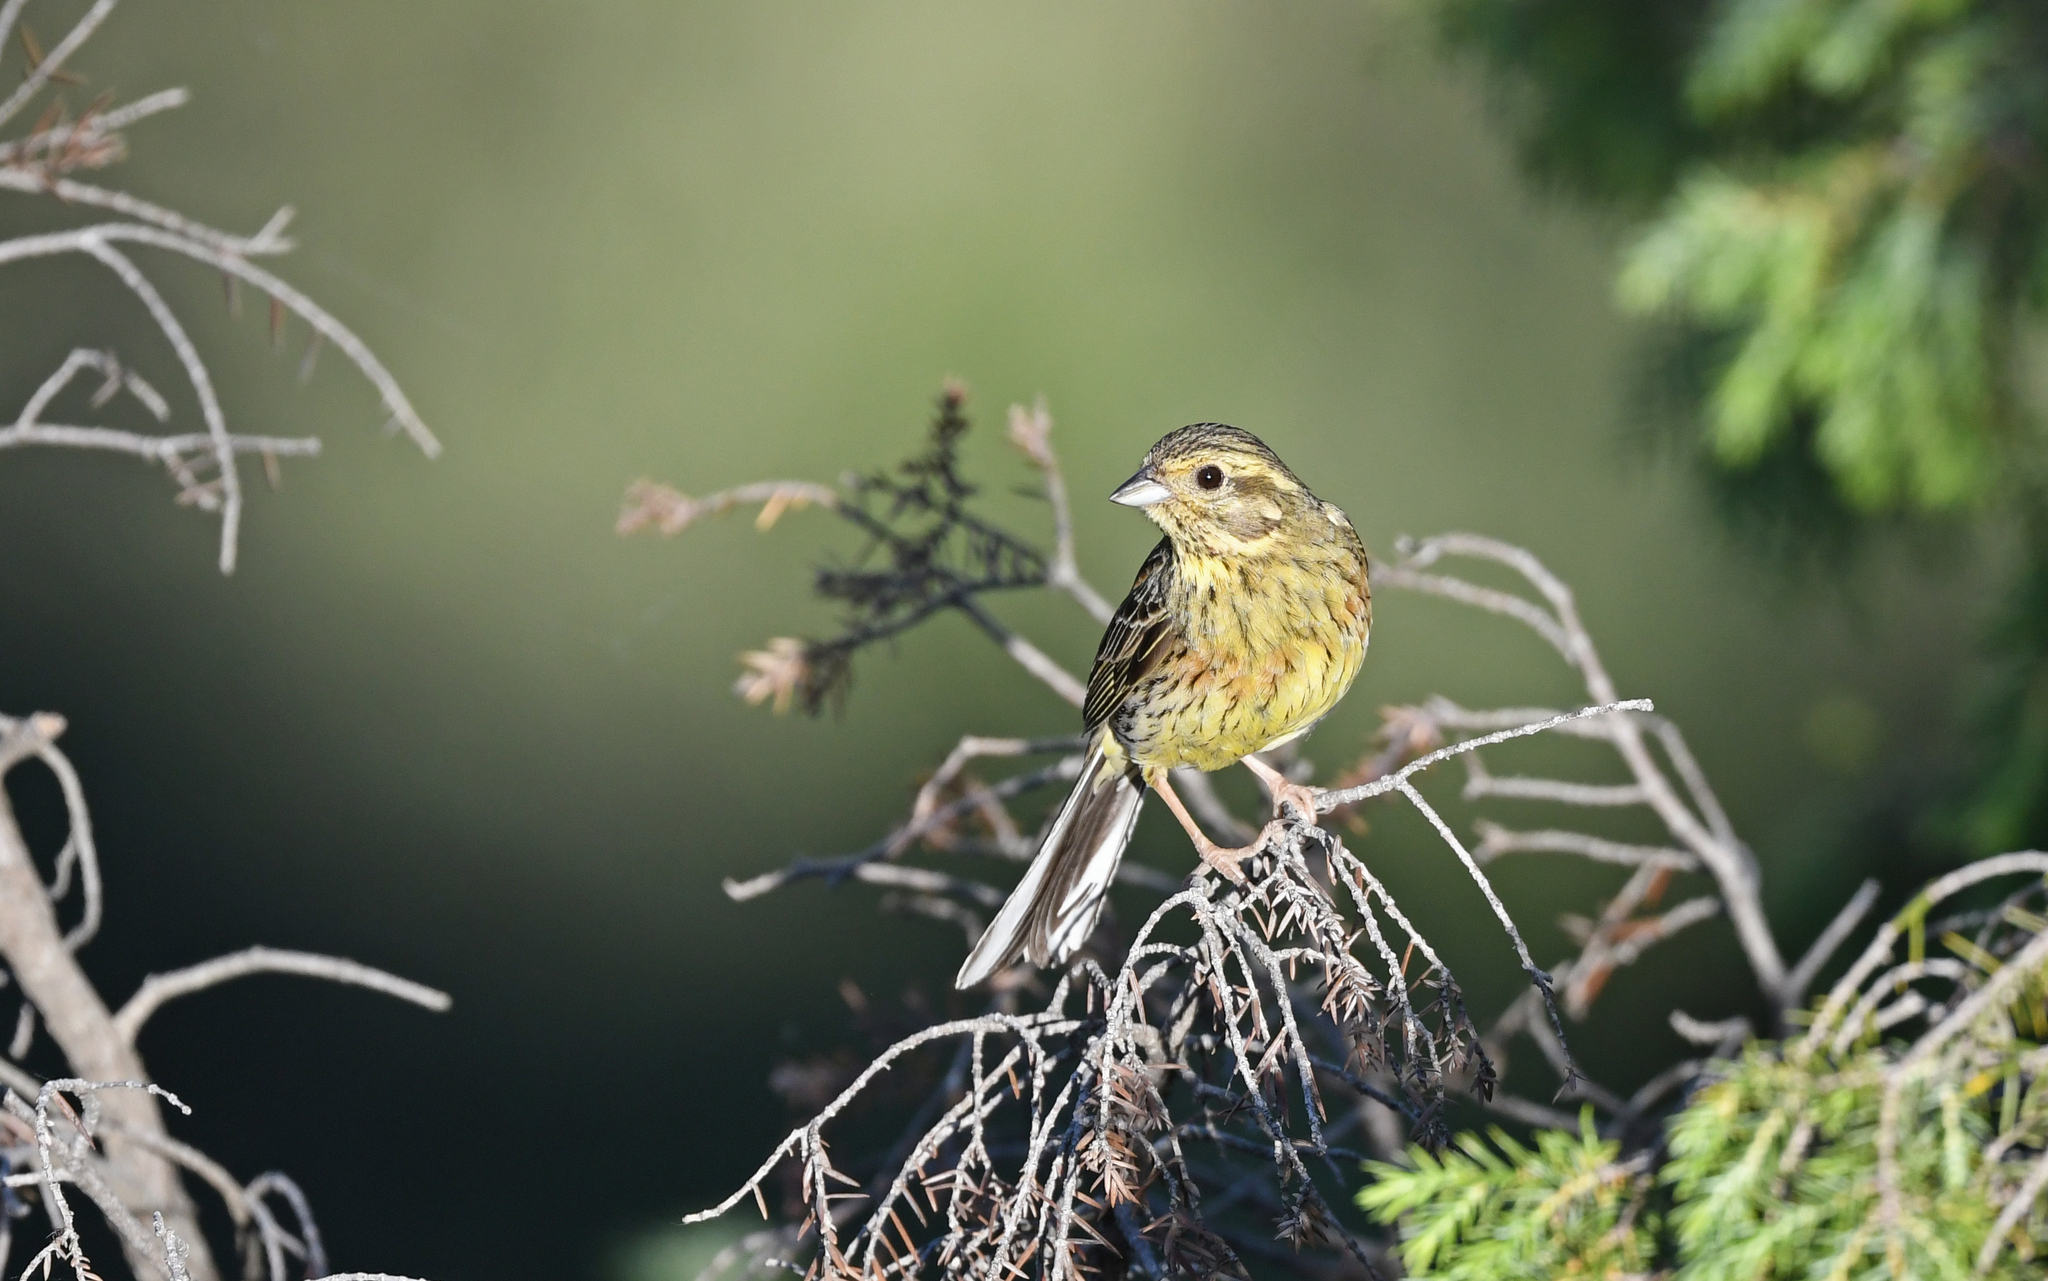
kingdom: Animalia
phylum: Chordata
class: Aves
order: Passeriformes
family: Emberizidae
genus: Emberiza
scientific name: Emberiza cirlus
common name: Cirl bunting
